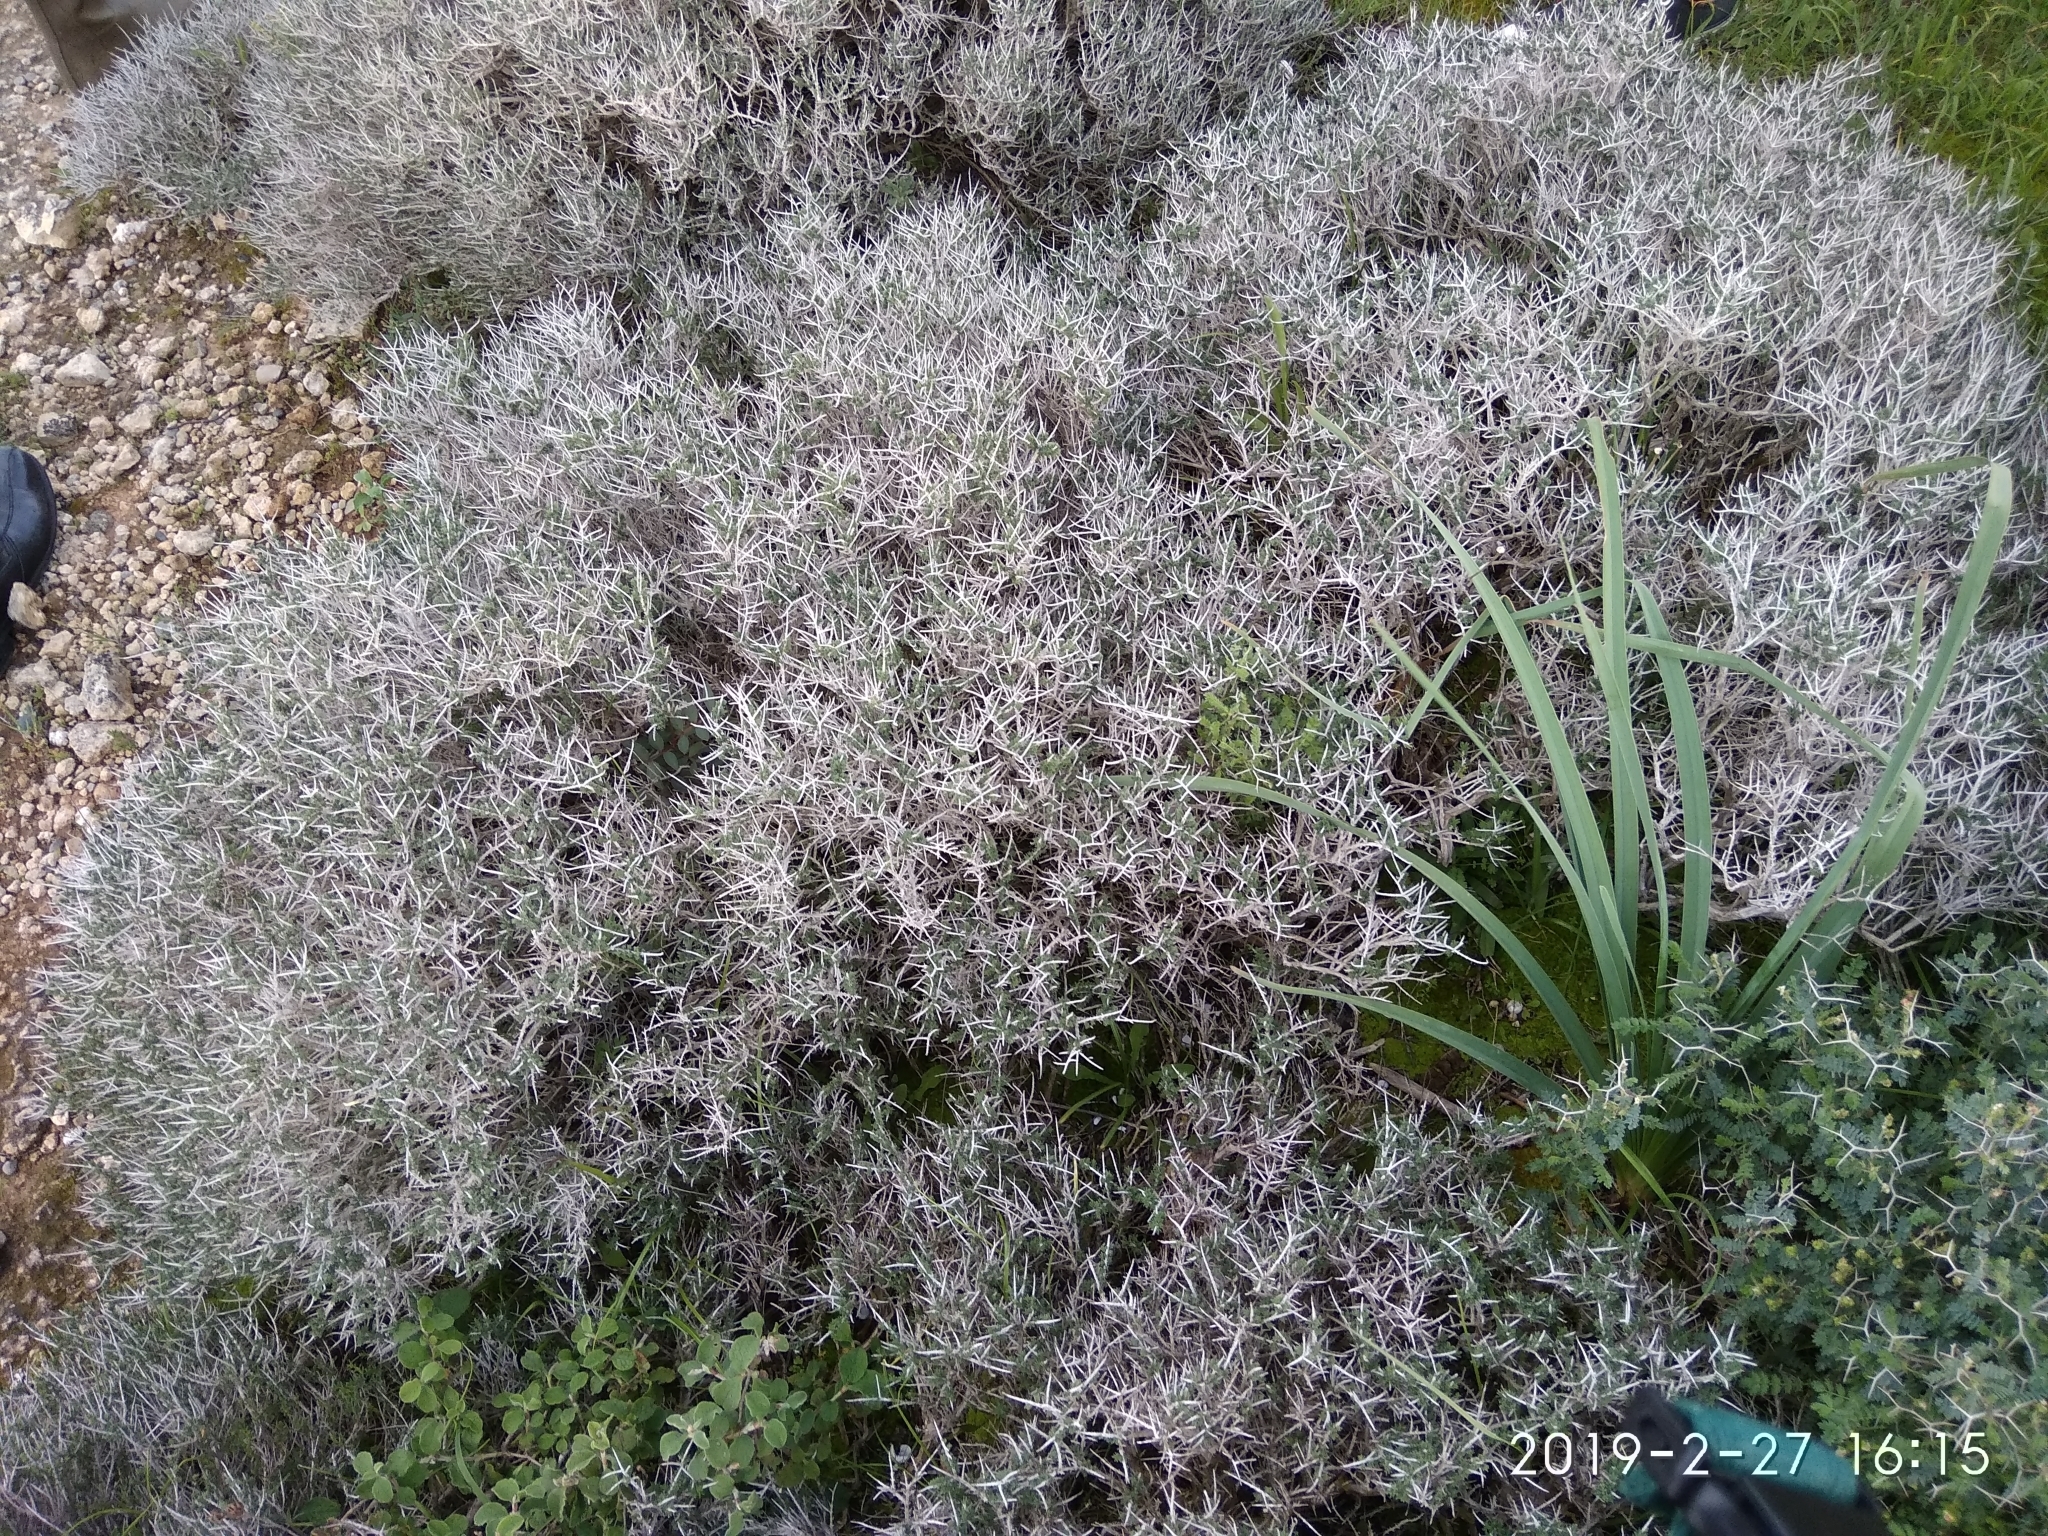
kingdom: Plantae
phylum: Tracheophyta
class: Magnoliopsida
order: Lamiales
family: Lamiaceae
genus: Thymbra
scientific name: Thymbra capitata
